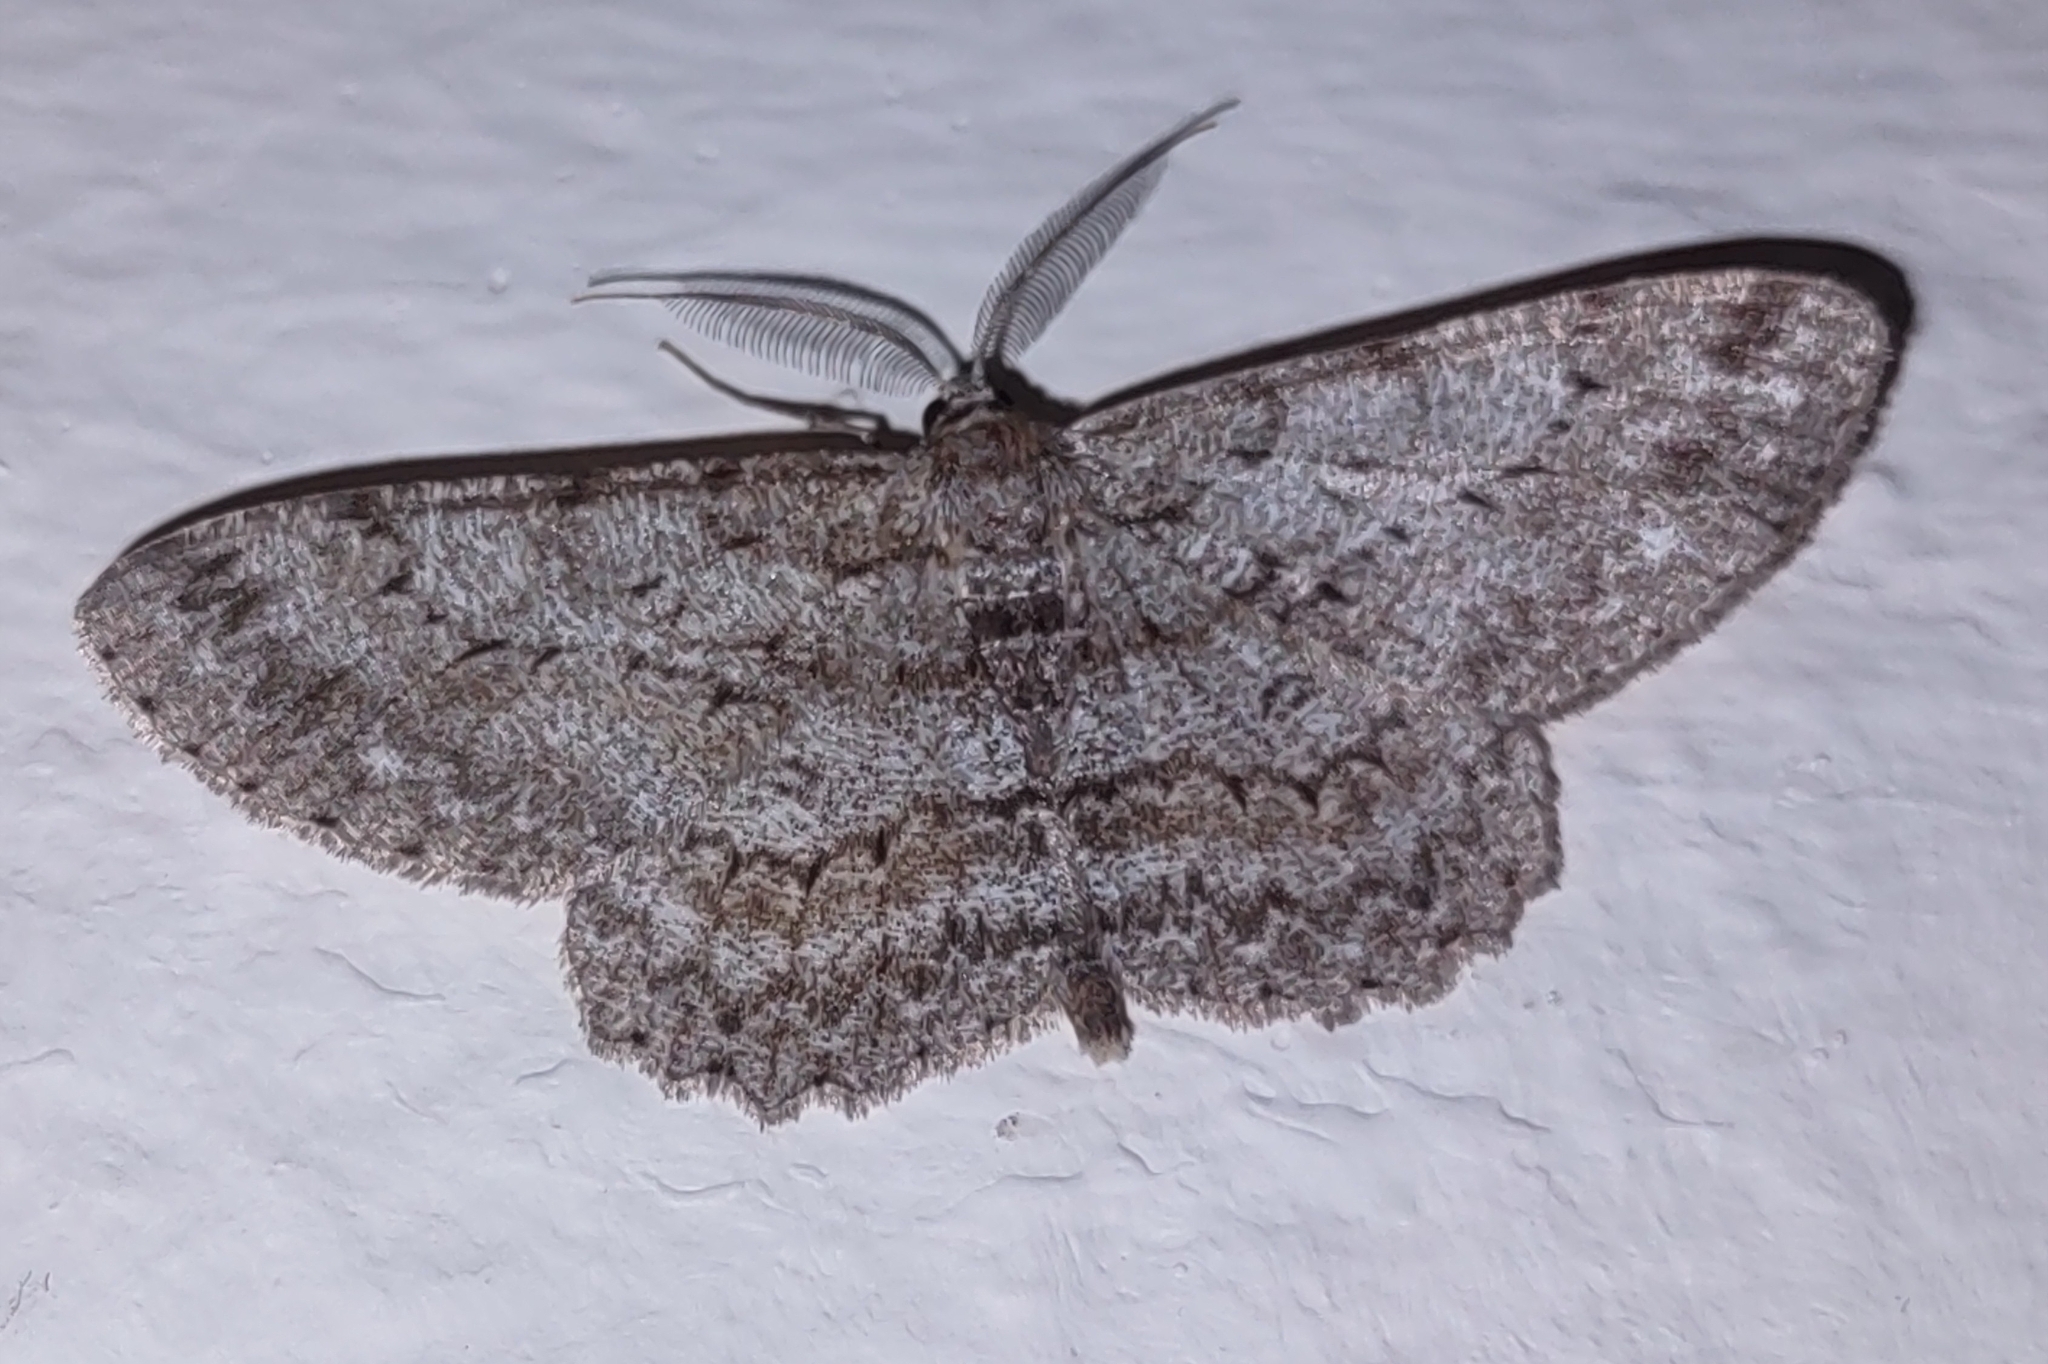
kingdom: Animalia
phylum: Arthropoda
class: Insecta
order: Lepidoptera
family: Geometridae
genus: Hypomecis
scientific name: Hypomecis punctinalis
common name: Pale oak beauty
